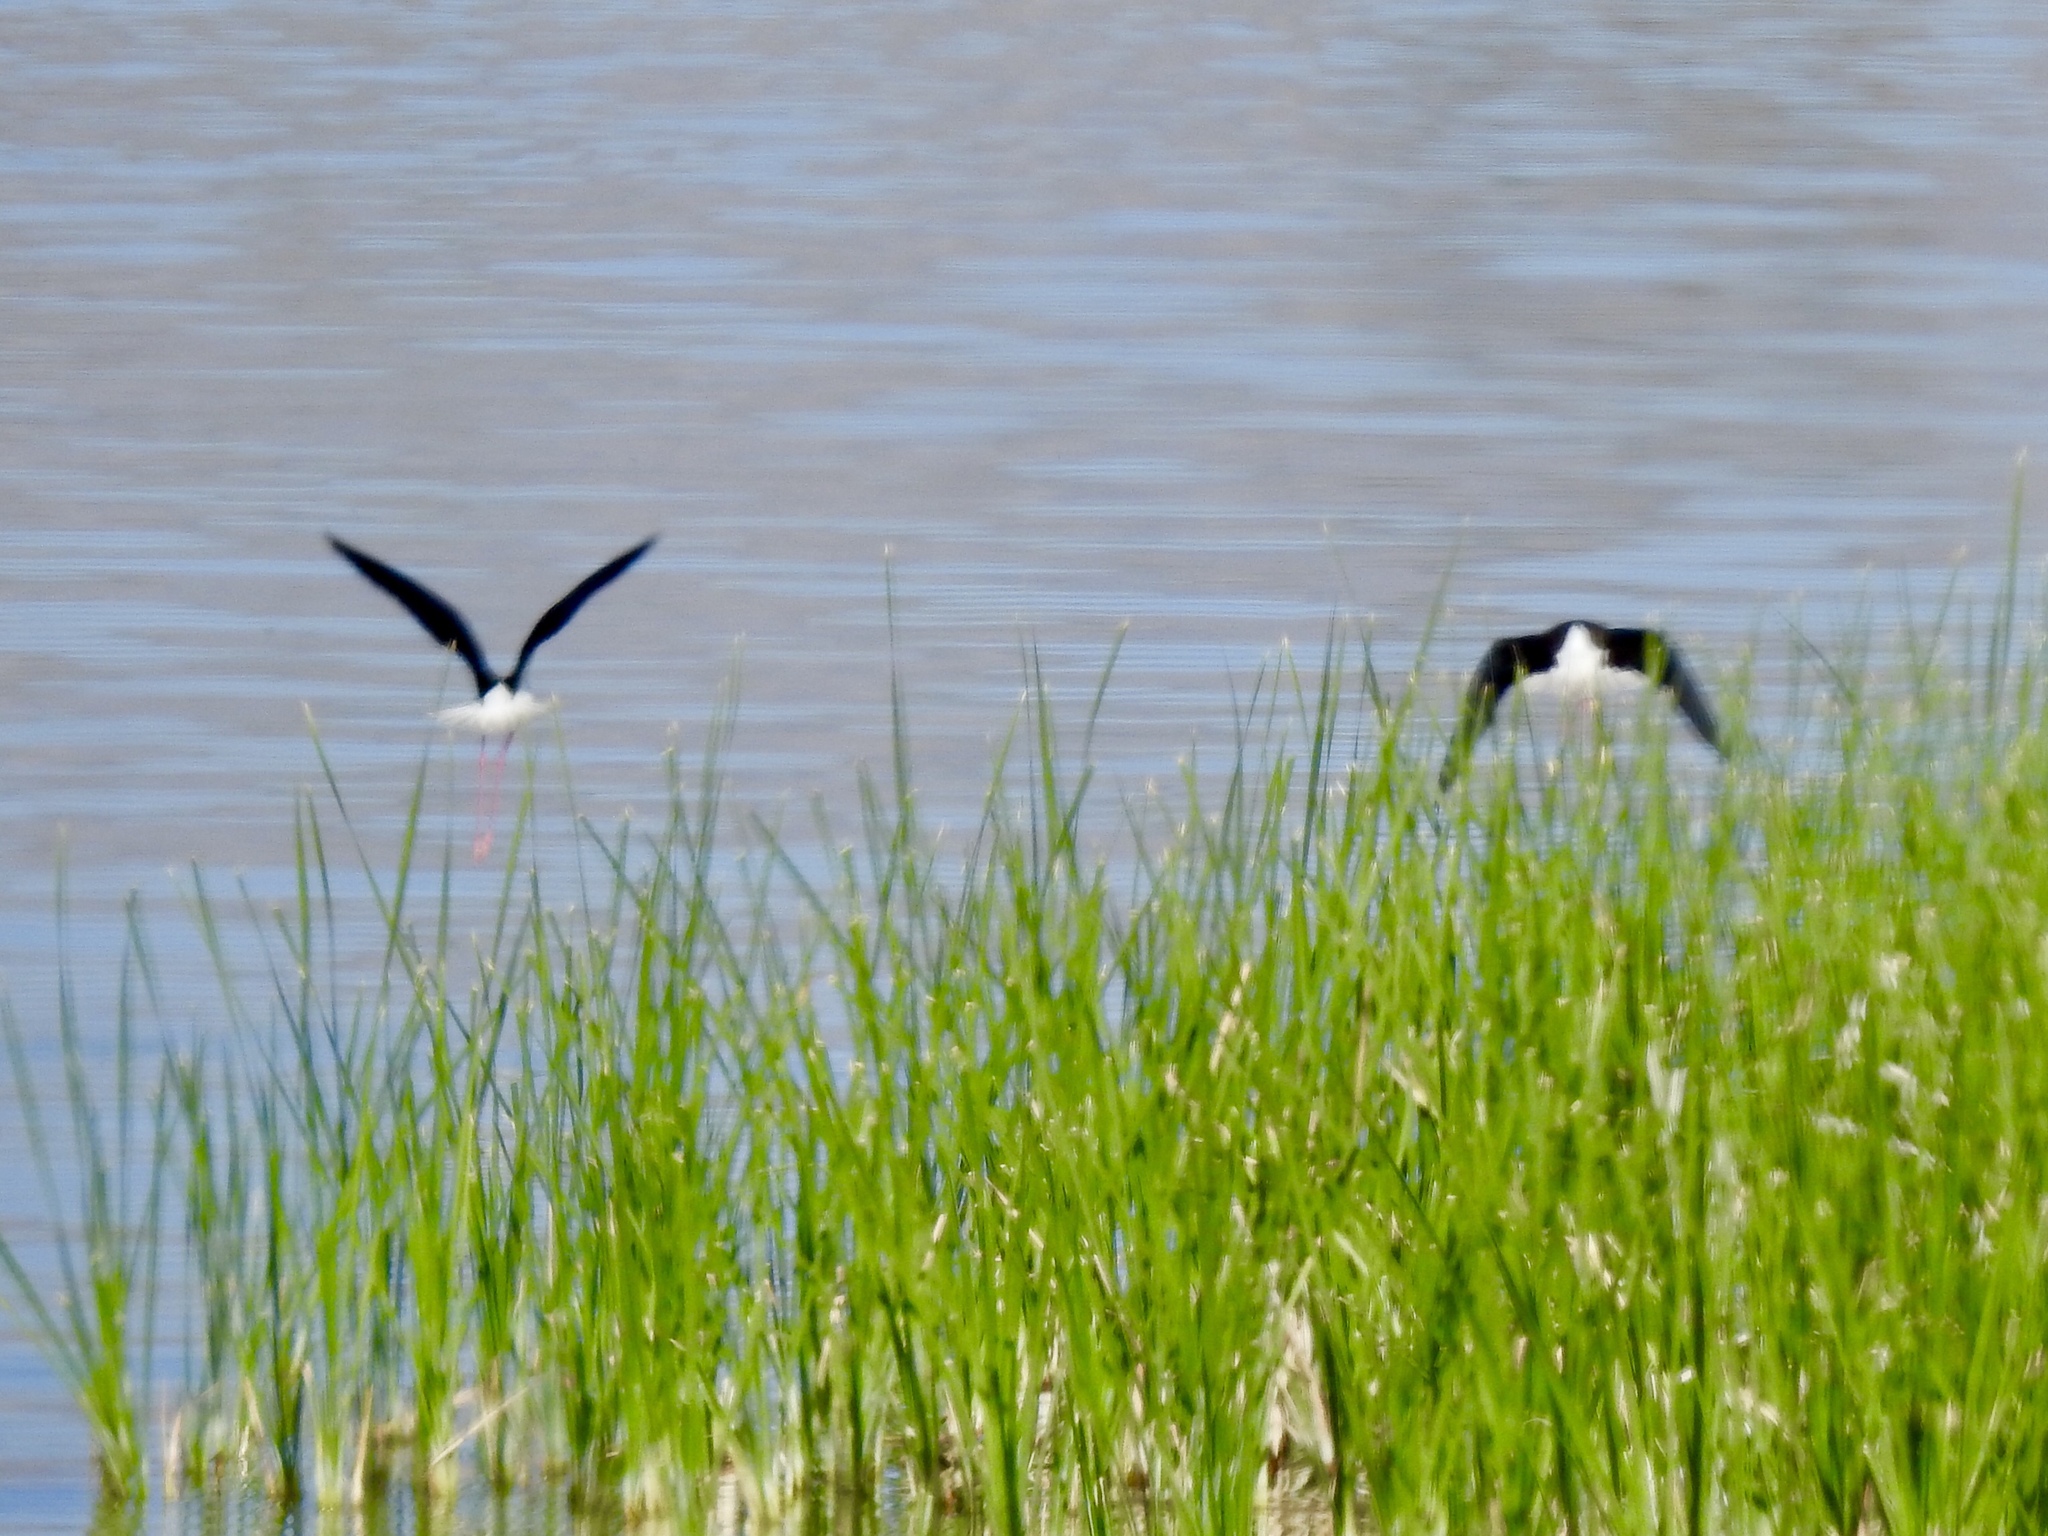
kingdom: Animalia
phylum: Chordata
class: Aves
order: Charadriiformes
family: Recurvirostridae
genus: Himantopus
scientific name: Himantopus mexicanus
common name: Black-necked stilt
